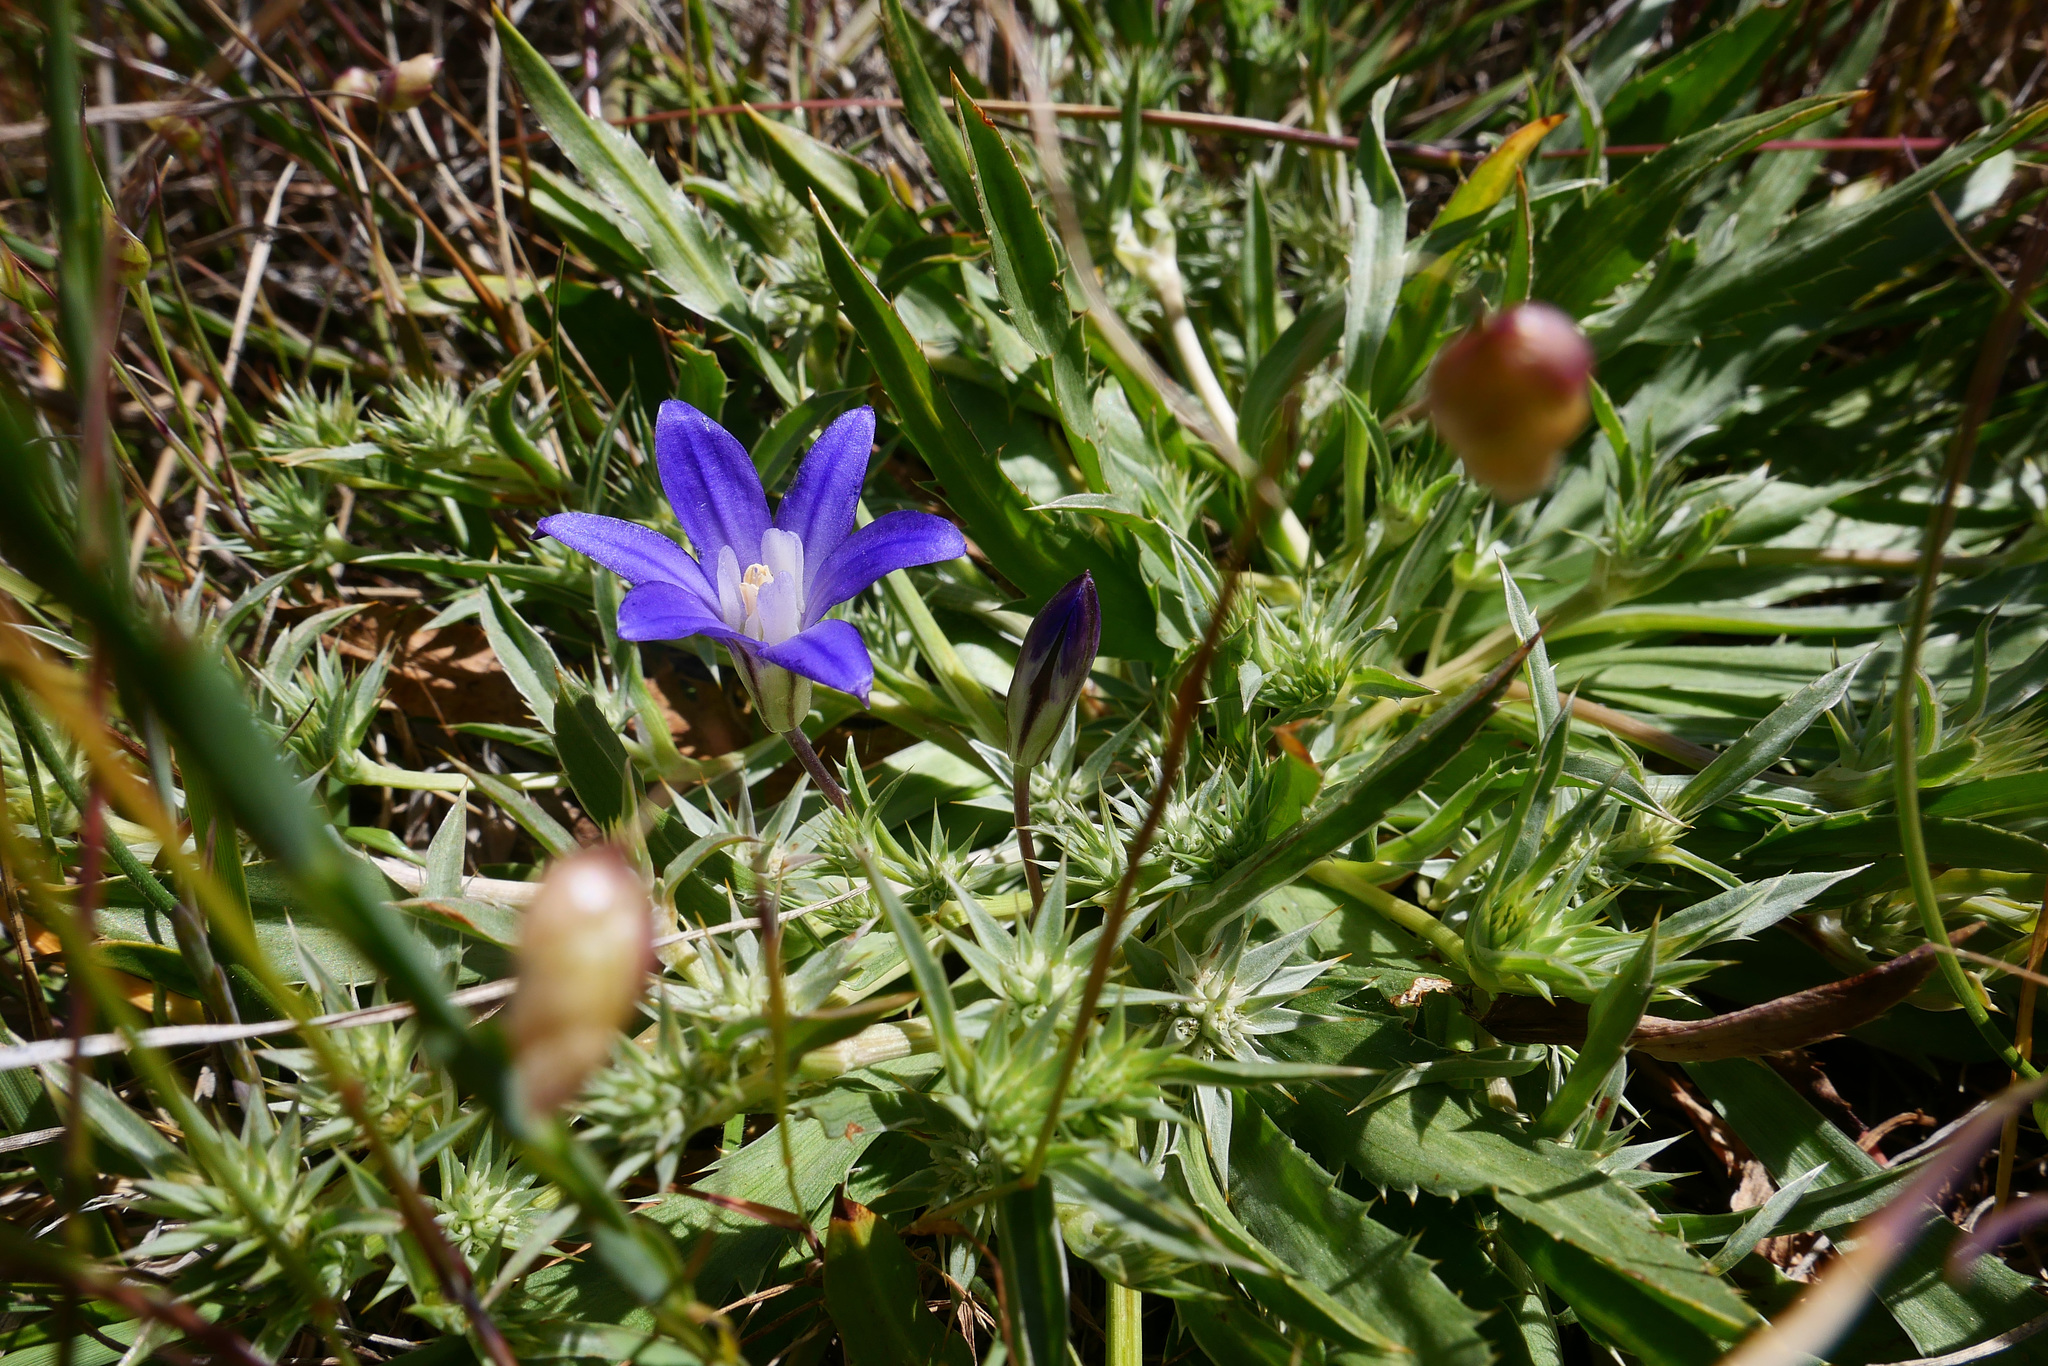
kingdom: Plantae
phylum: Tracheophyta
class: Liliopsida
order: Asparagales
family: Asparagaceae
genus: Brodiaea
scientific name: Brodiaea terrestris
